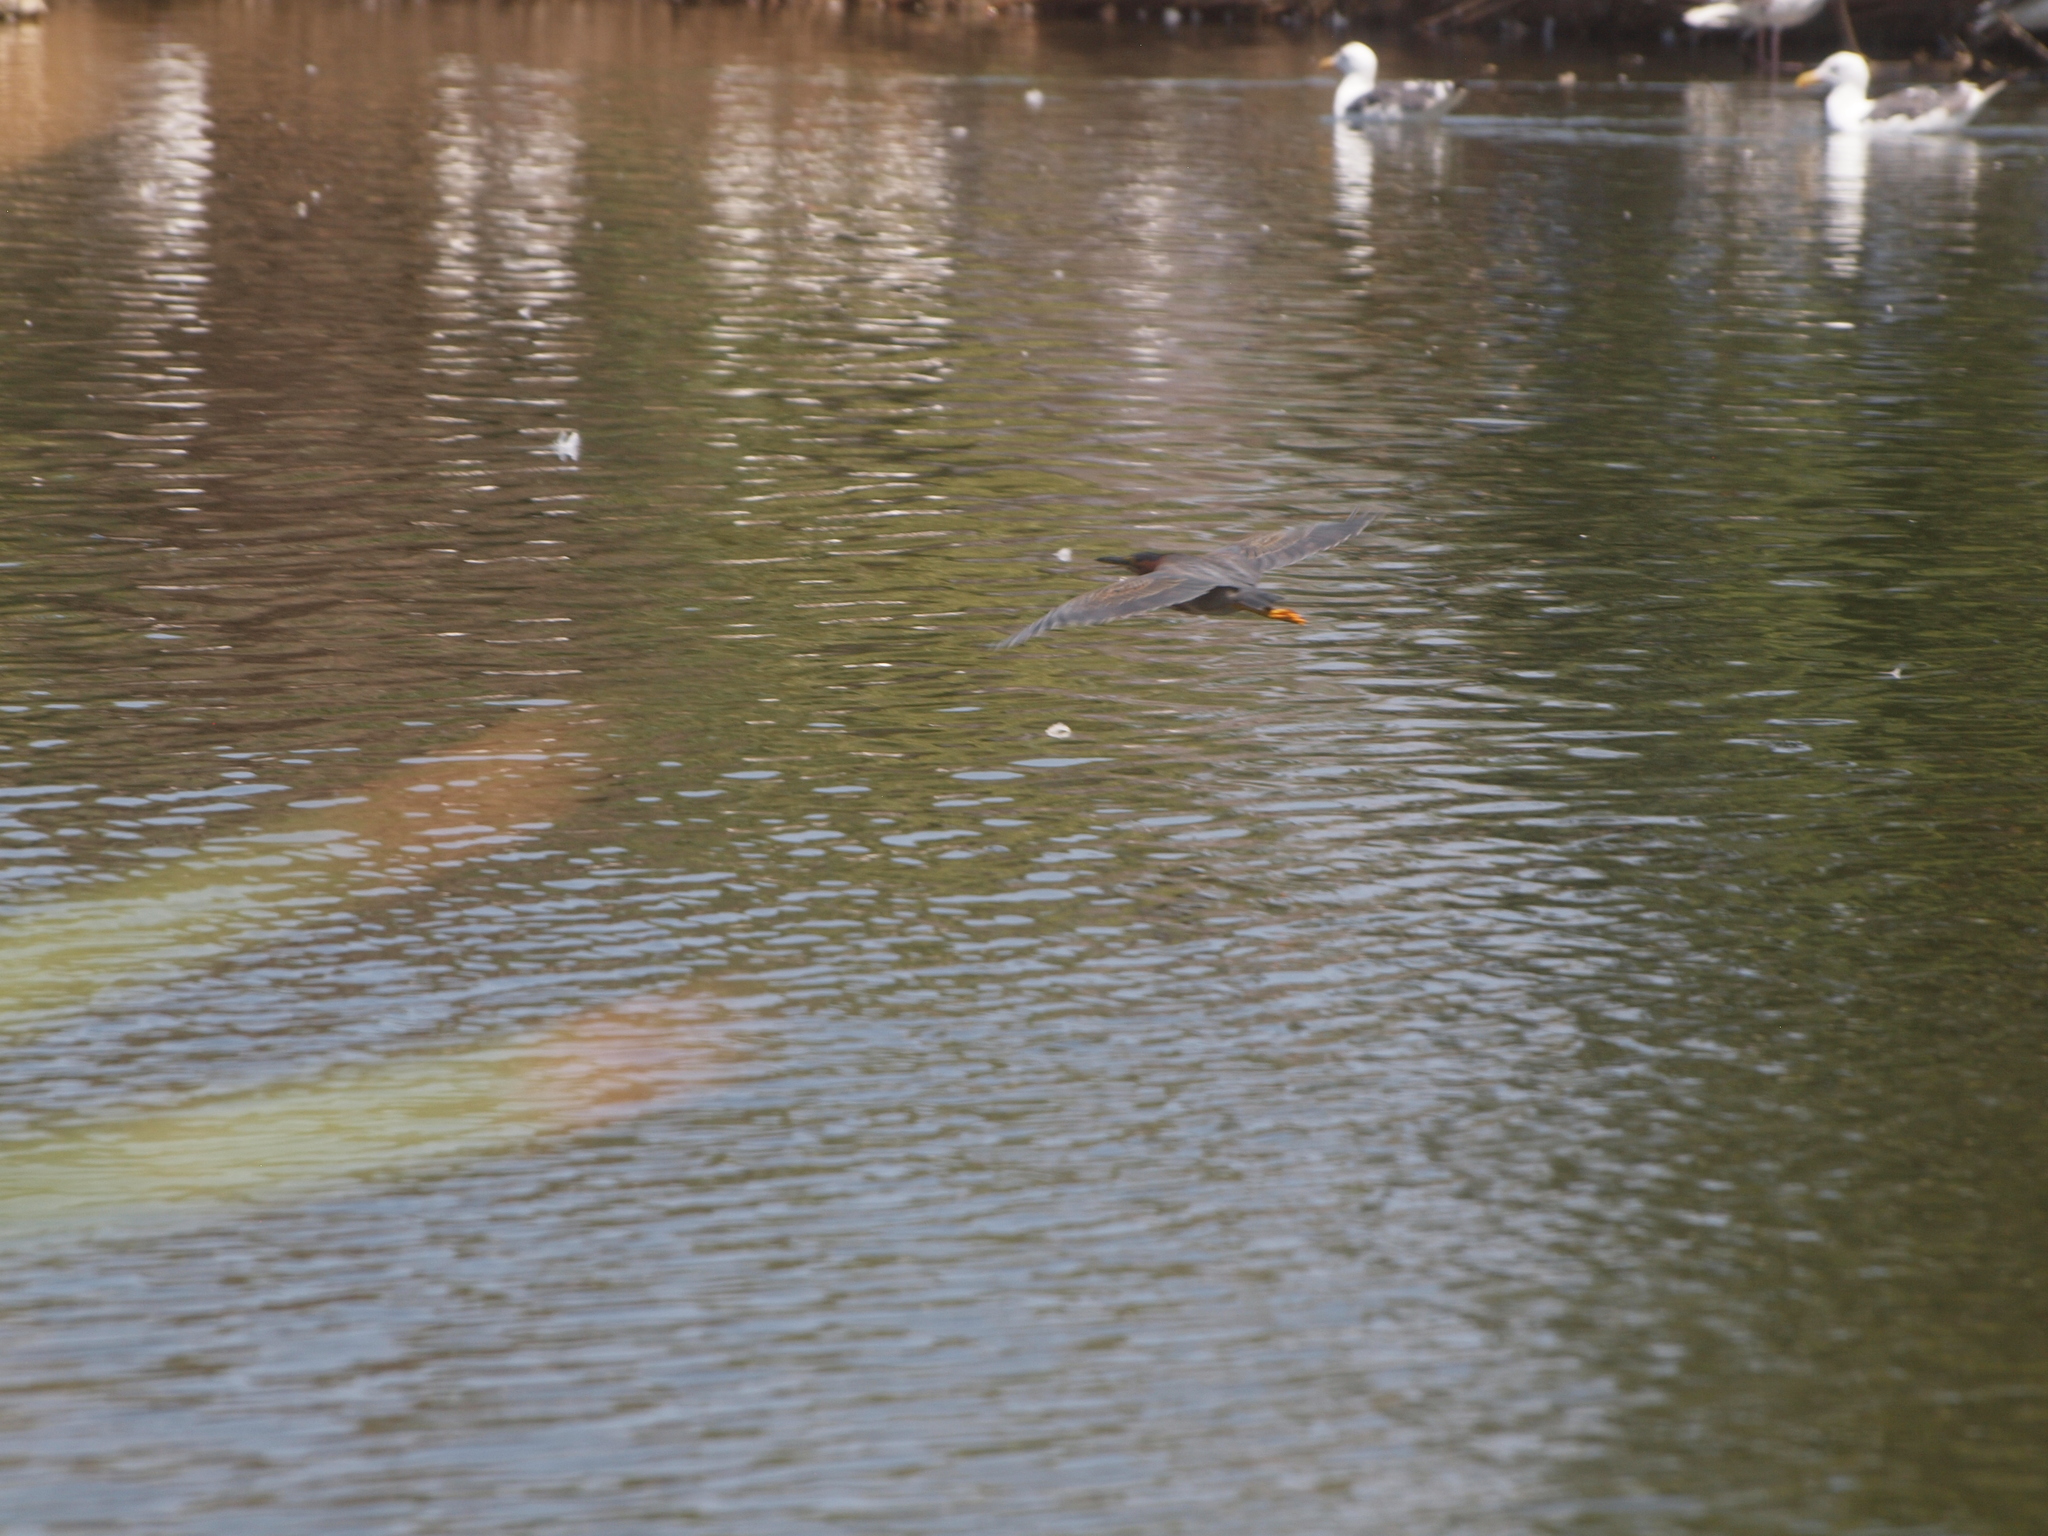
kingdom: Animalia
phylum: Chordata
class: Aves
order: Pelecaniformes
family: Ardeidae
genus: Butorides
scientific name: Butorides virescens
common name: Green heron
